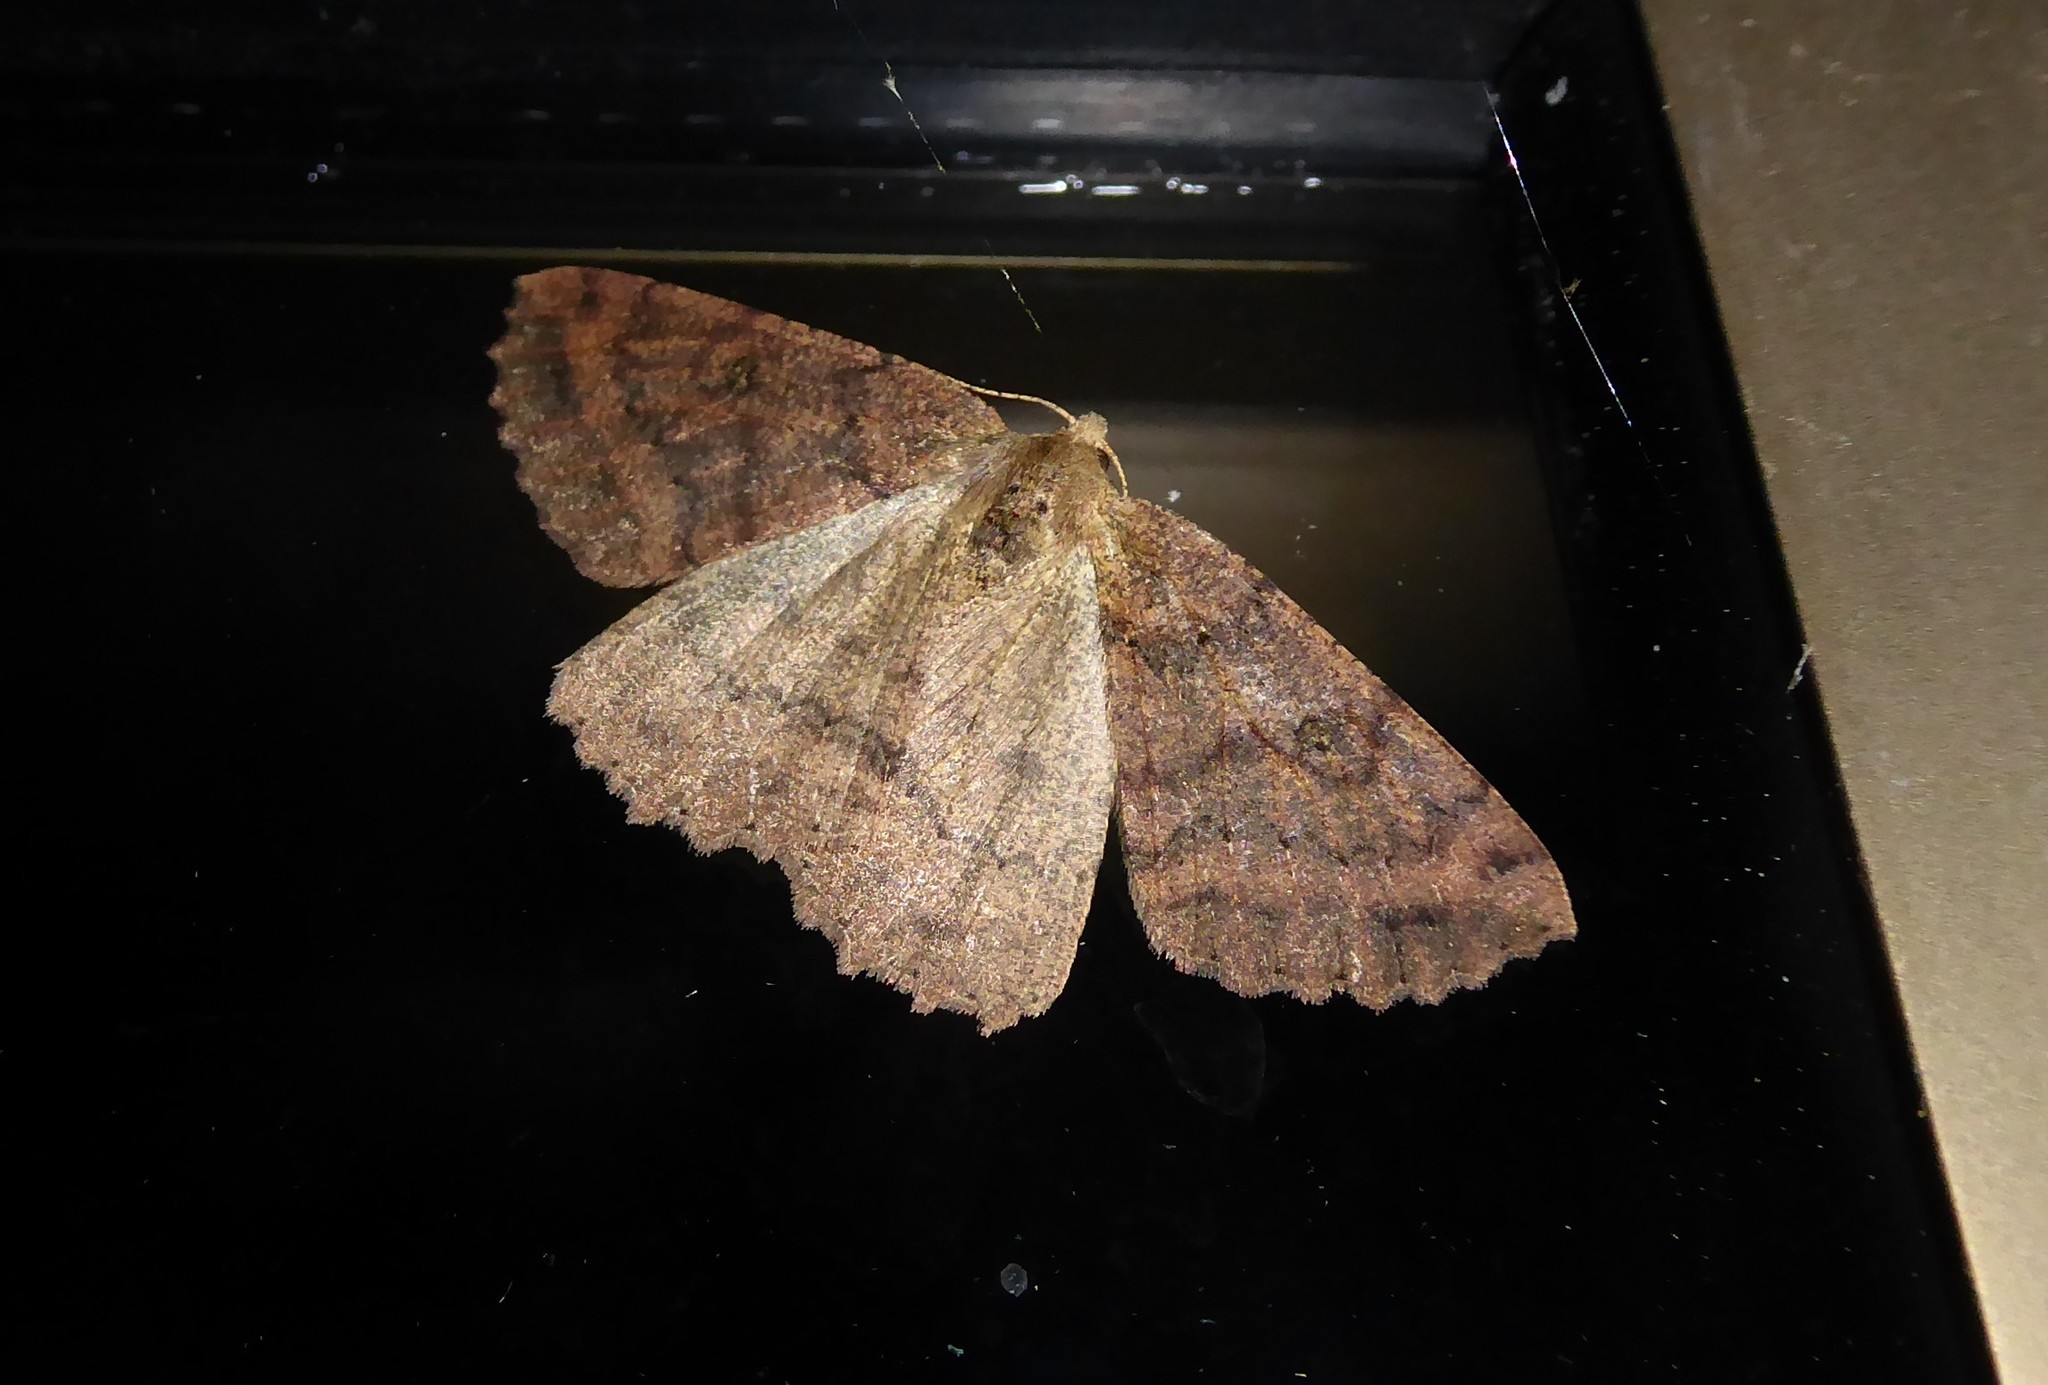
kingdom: Animalia
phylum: Arthropoda
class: Insecta
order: Lepidoptera
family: Geometridae
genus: Cleora
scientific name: Cleora scriptaria
